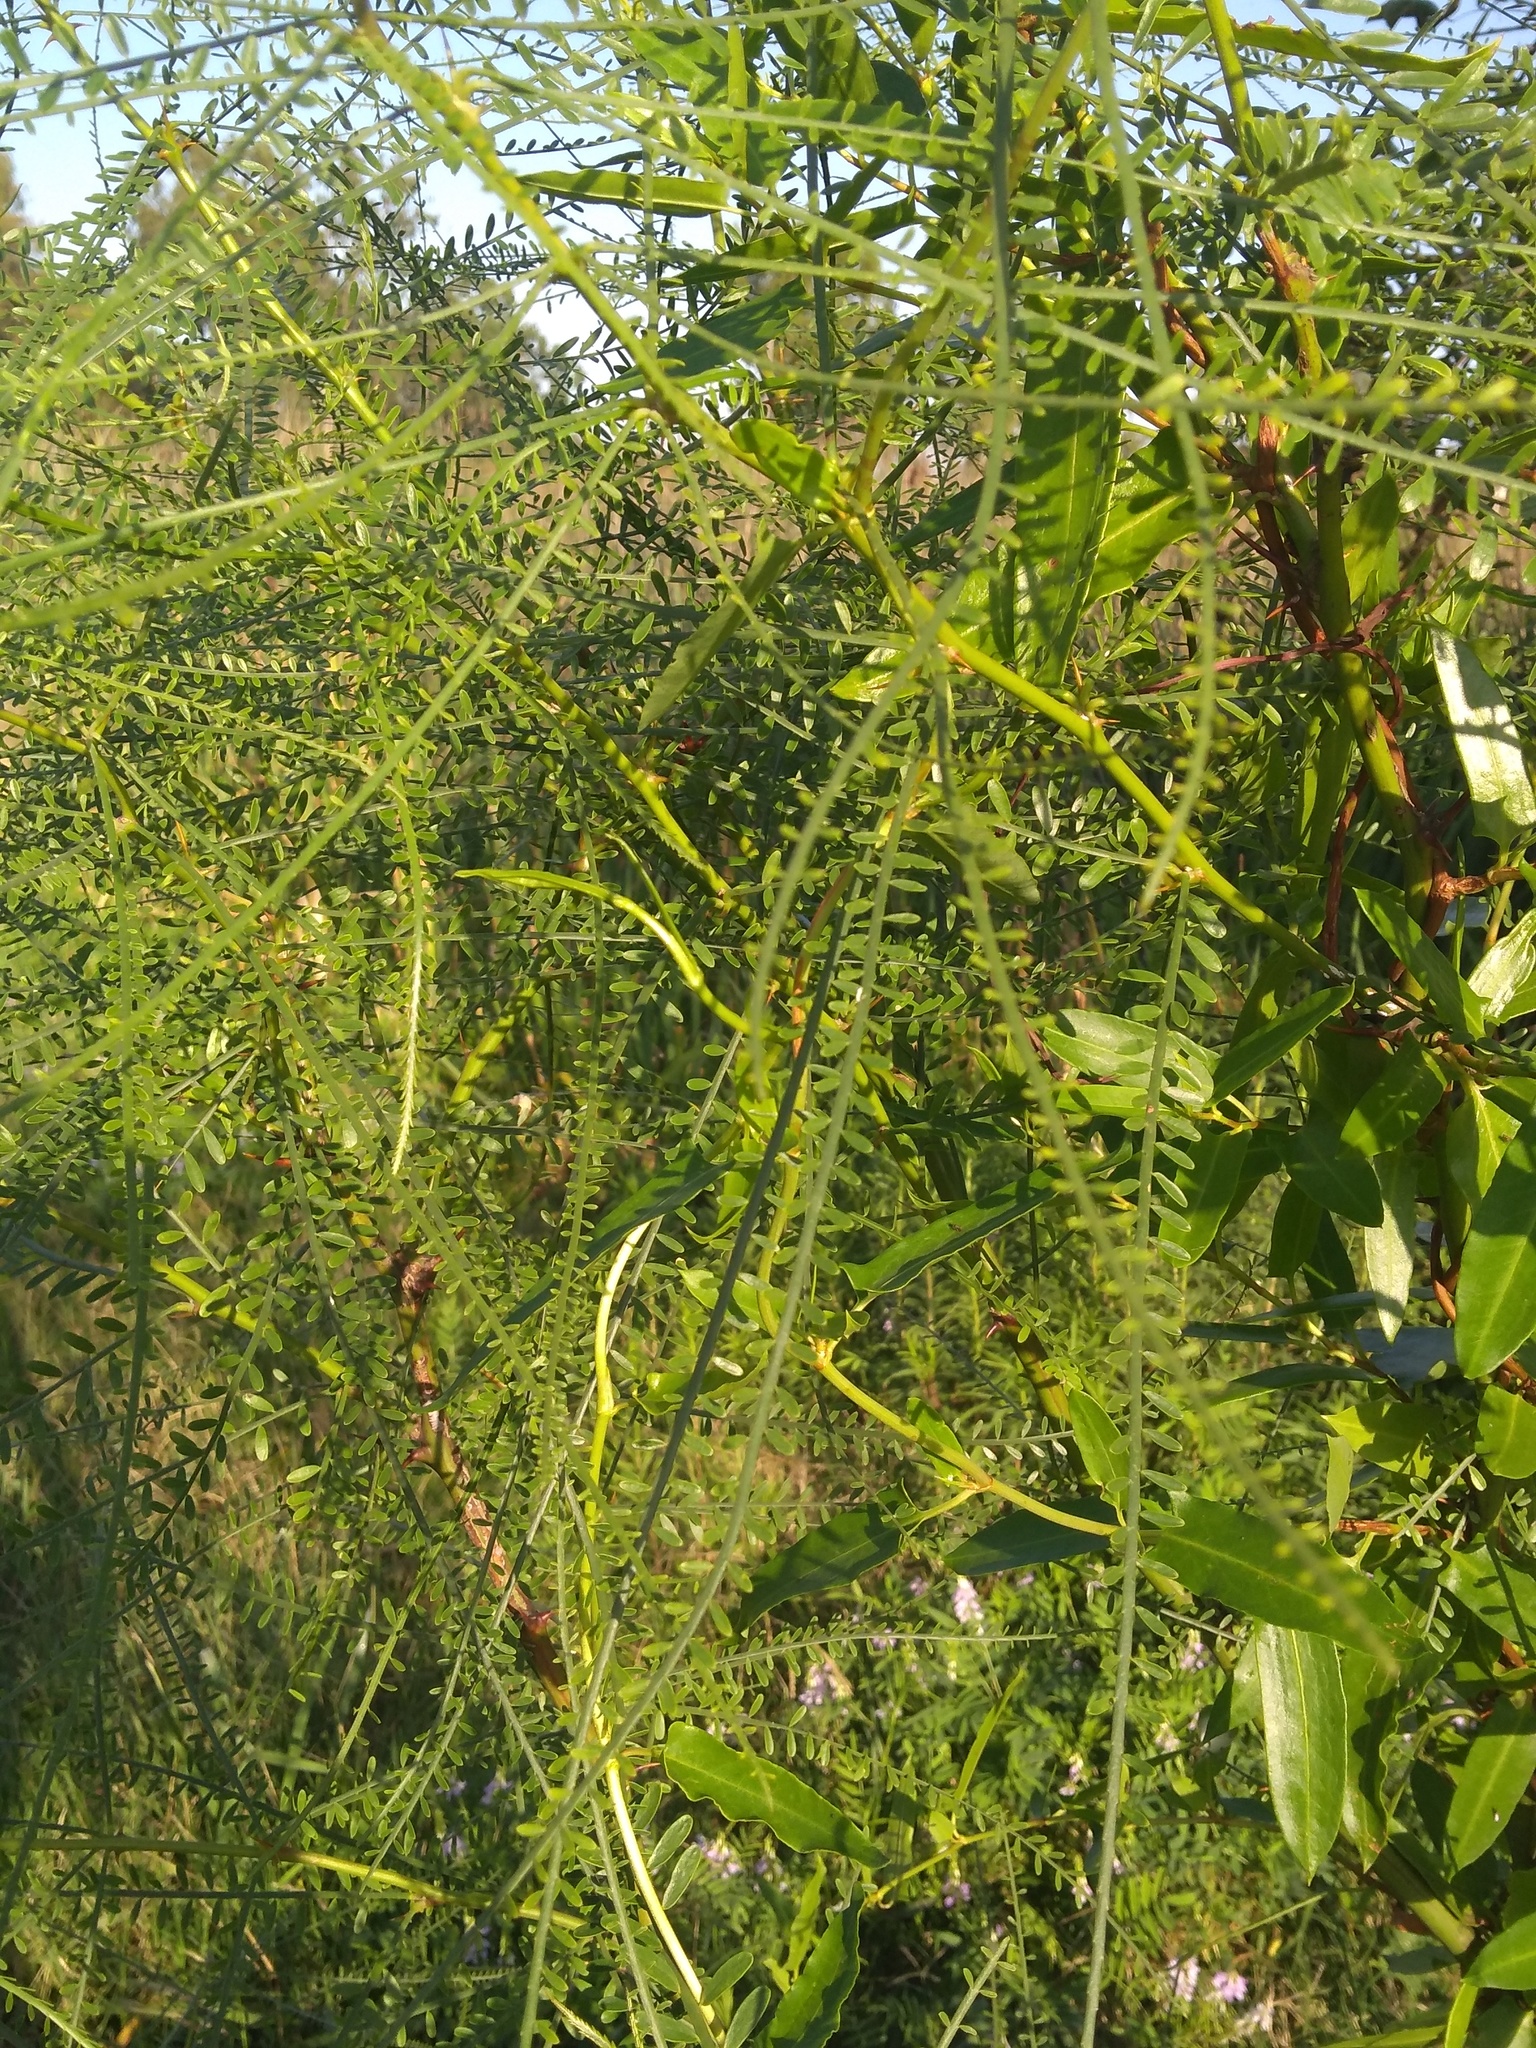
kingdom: Plantae
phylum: Tracheophyta
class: Magnoliopsida
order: Fabales
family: Fabaceae
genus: Parkinsonia
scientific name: Parkinsonia aculeata
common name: Jerusalem thorn
